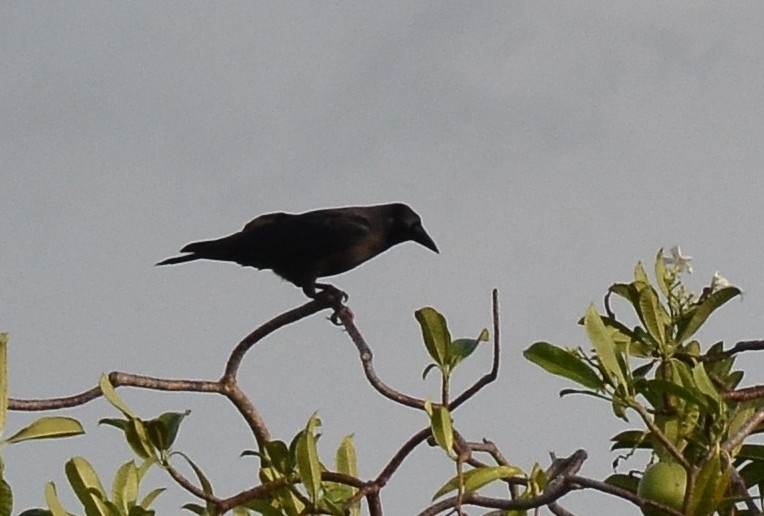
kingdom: Animalia
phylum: Chordata
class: Aves
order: Passeriformes
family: Corvidae
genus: Corvus
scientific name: Corvus splendens
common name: House crow
